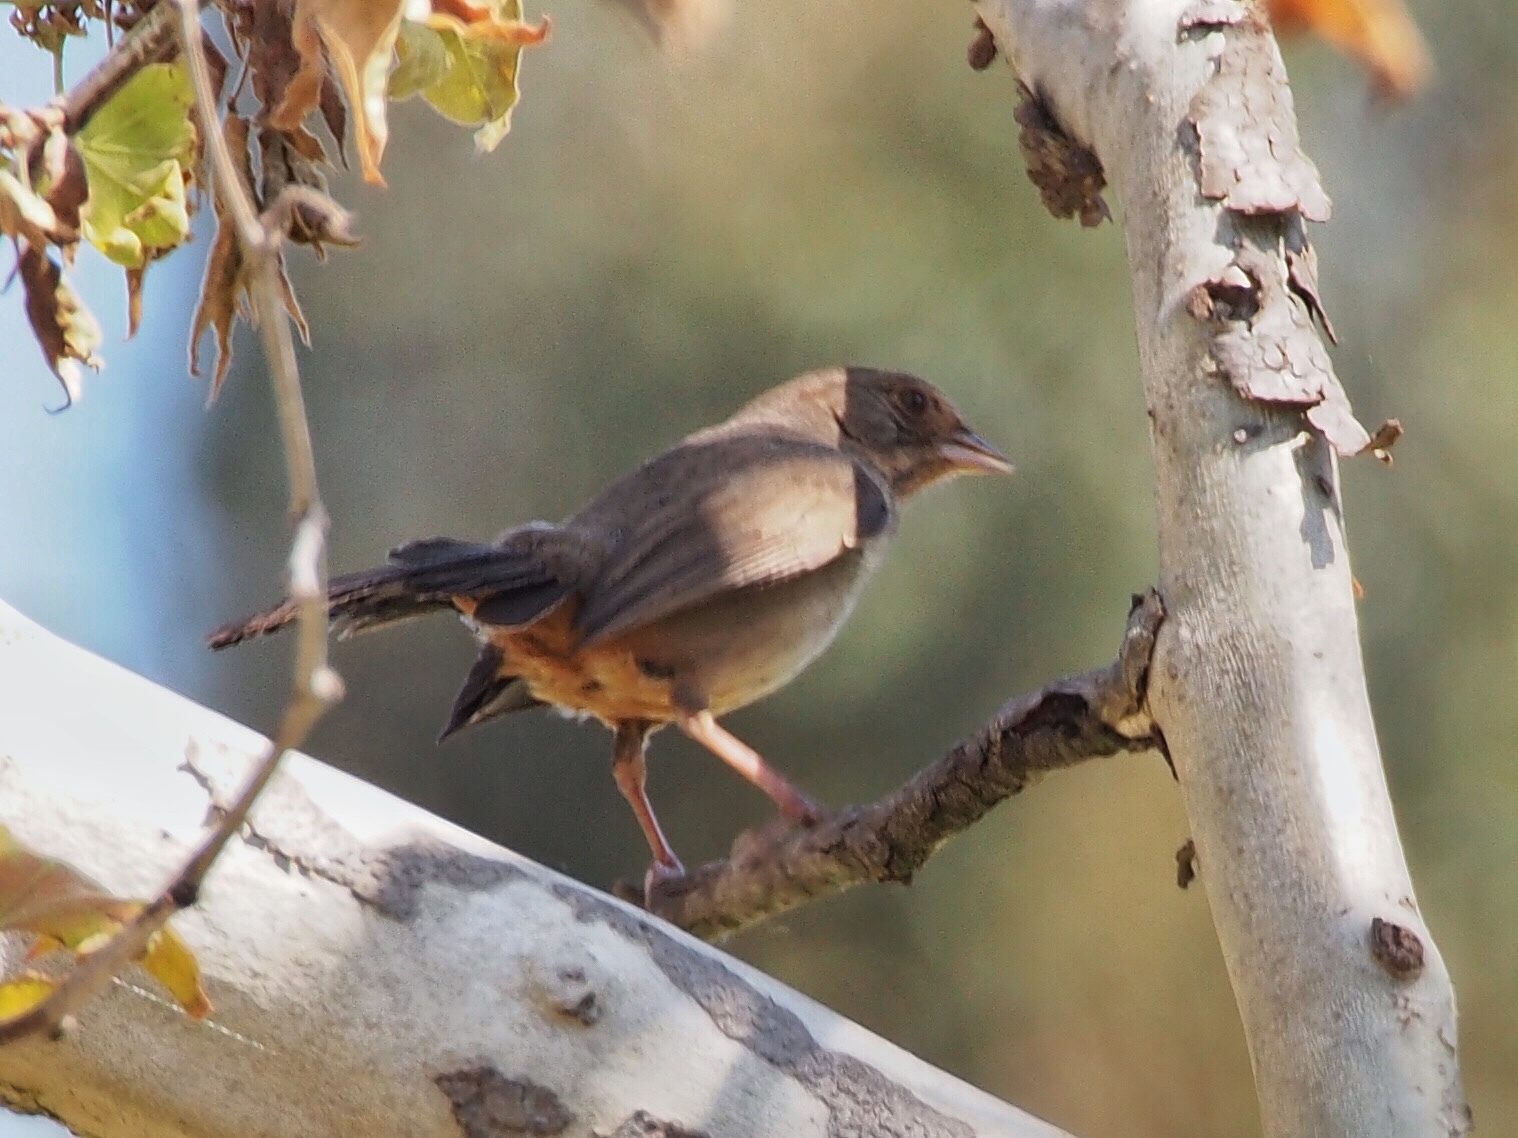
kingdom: Animalia
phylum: Chordata
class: Aves
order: Passeriformes
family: Passerellidae
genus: Melozone
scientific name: Melozone crissalis
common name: California towhee
